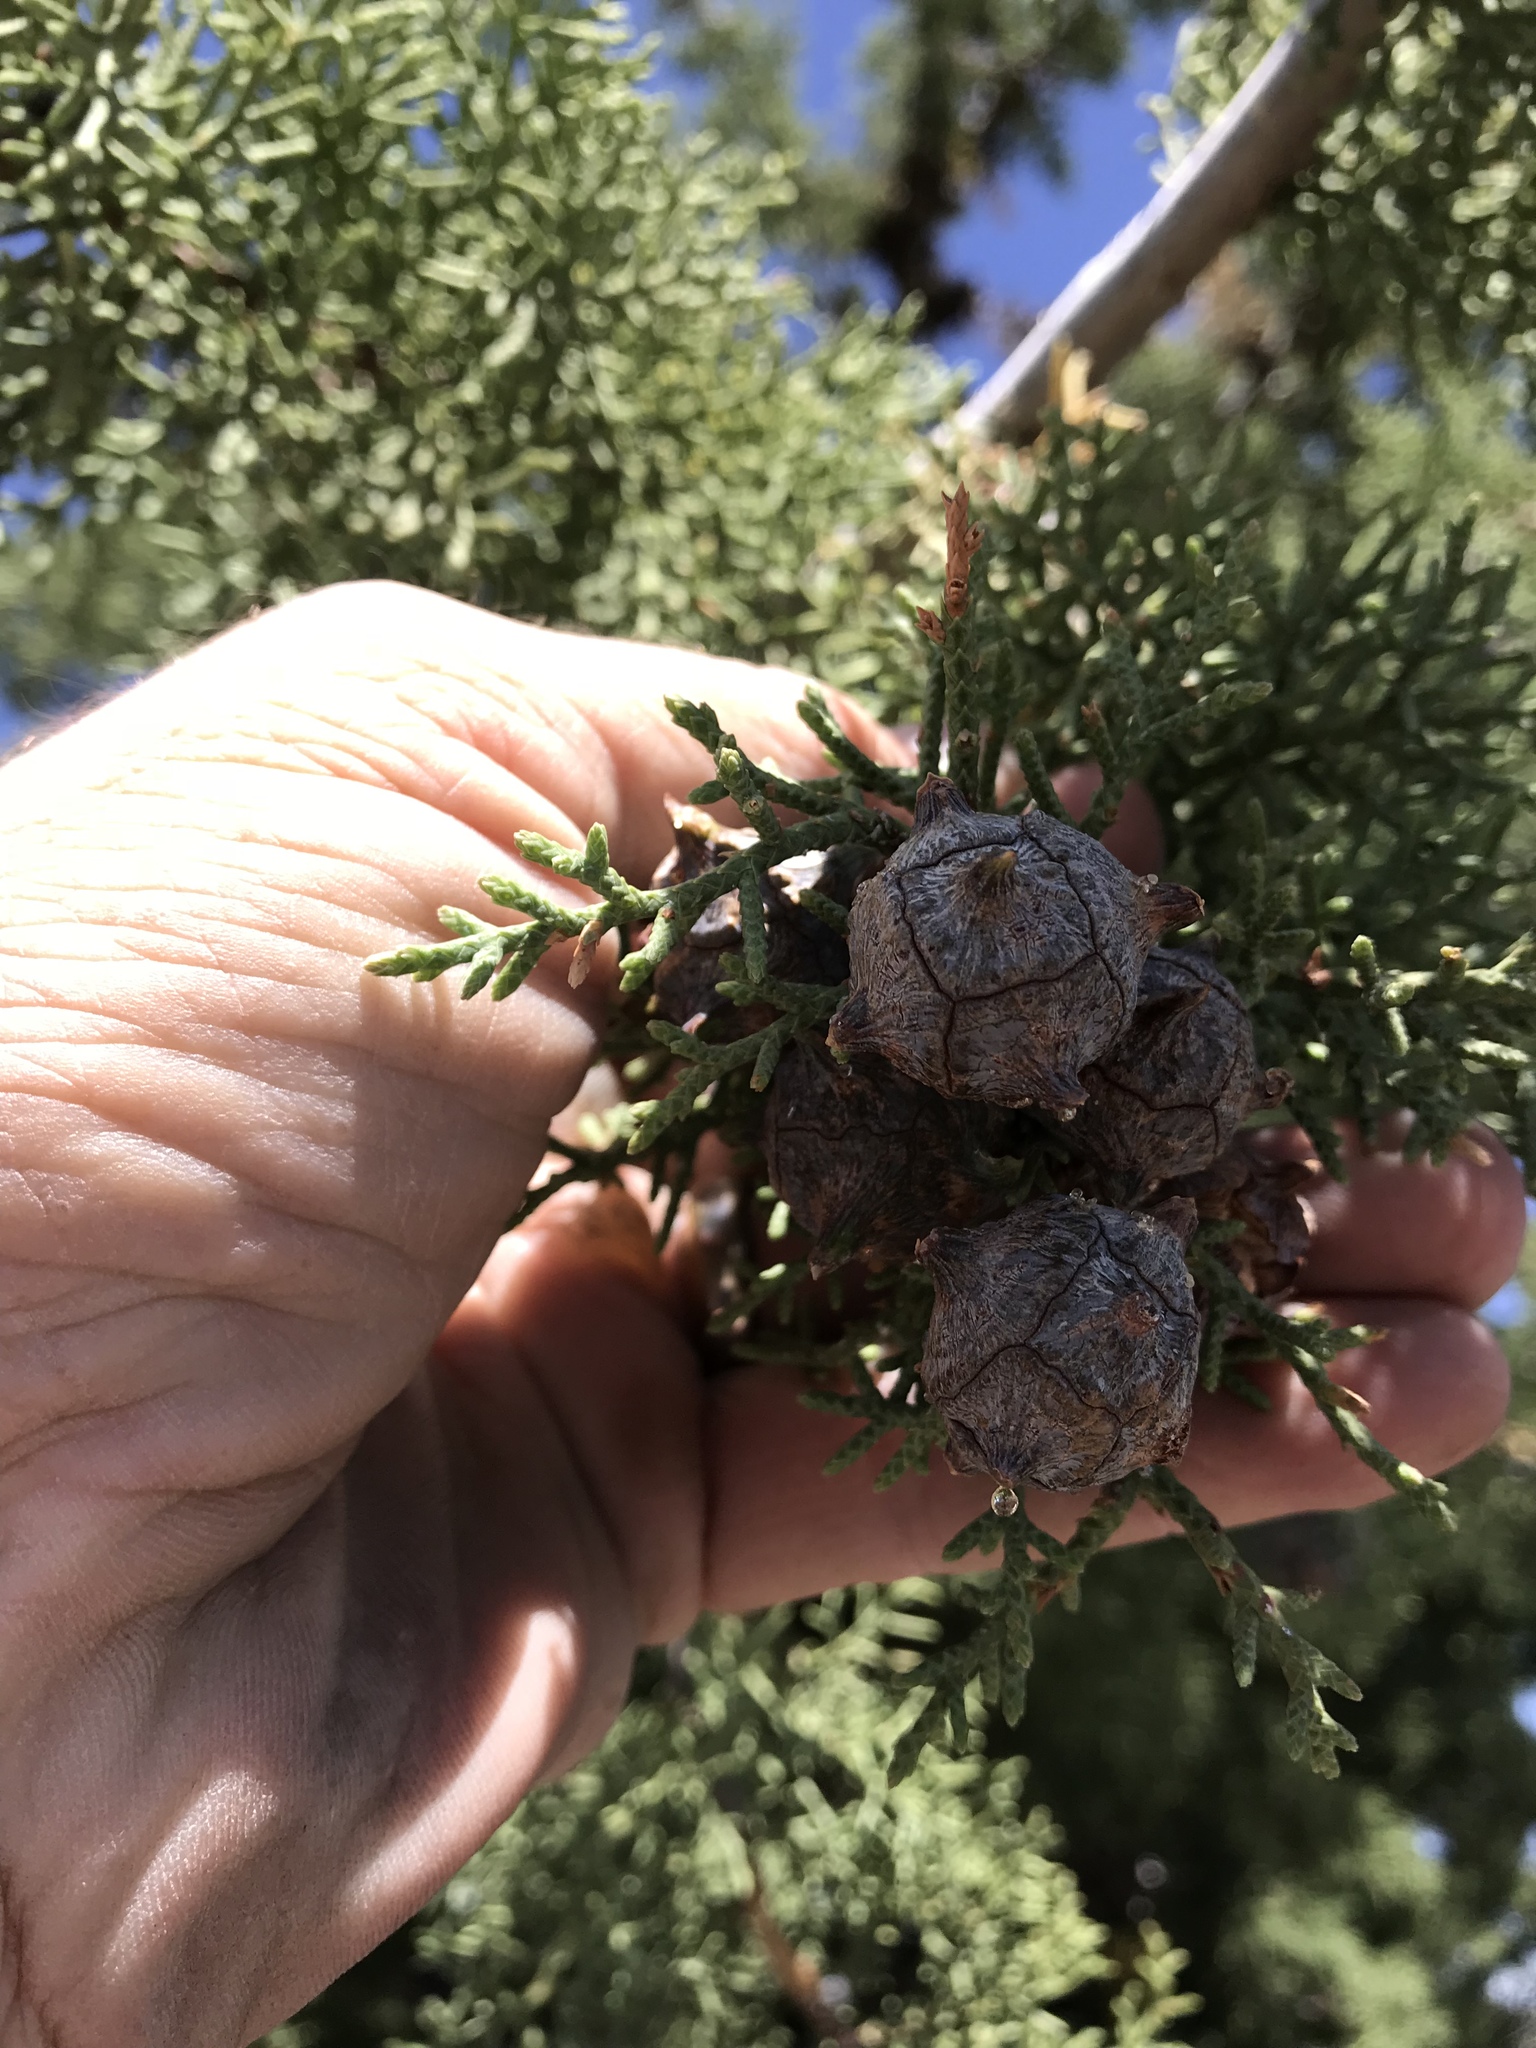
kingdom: Plantae
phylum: Tracheophyta
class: Pinopsida
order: Pinales
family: Cupressaceae
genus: Cupressus
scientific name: Cupressus arizonica
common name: Arizona cypress
